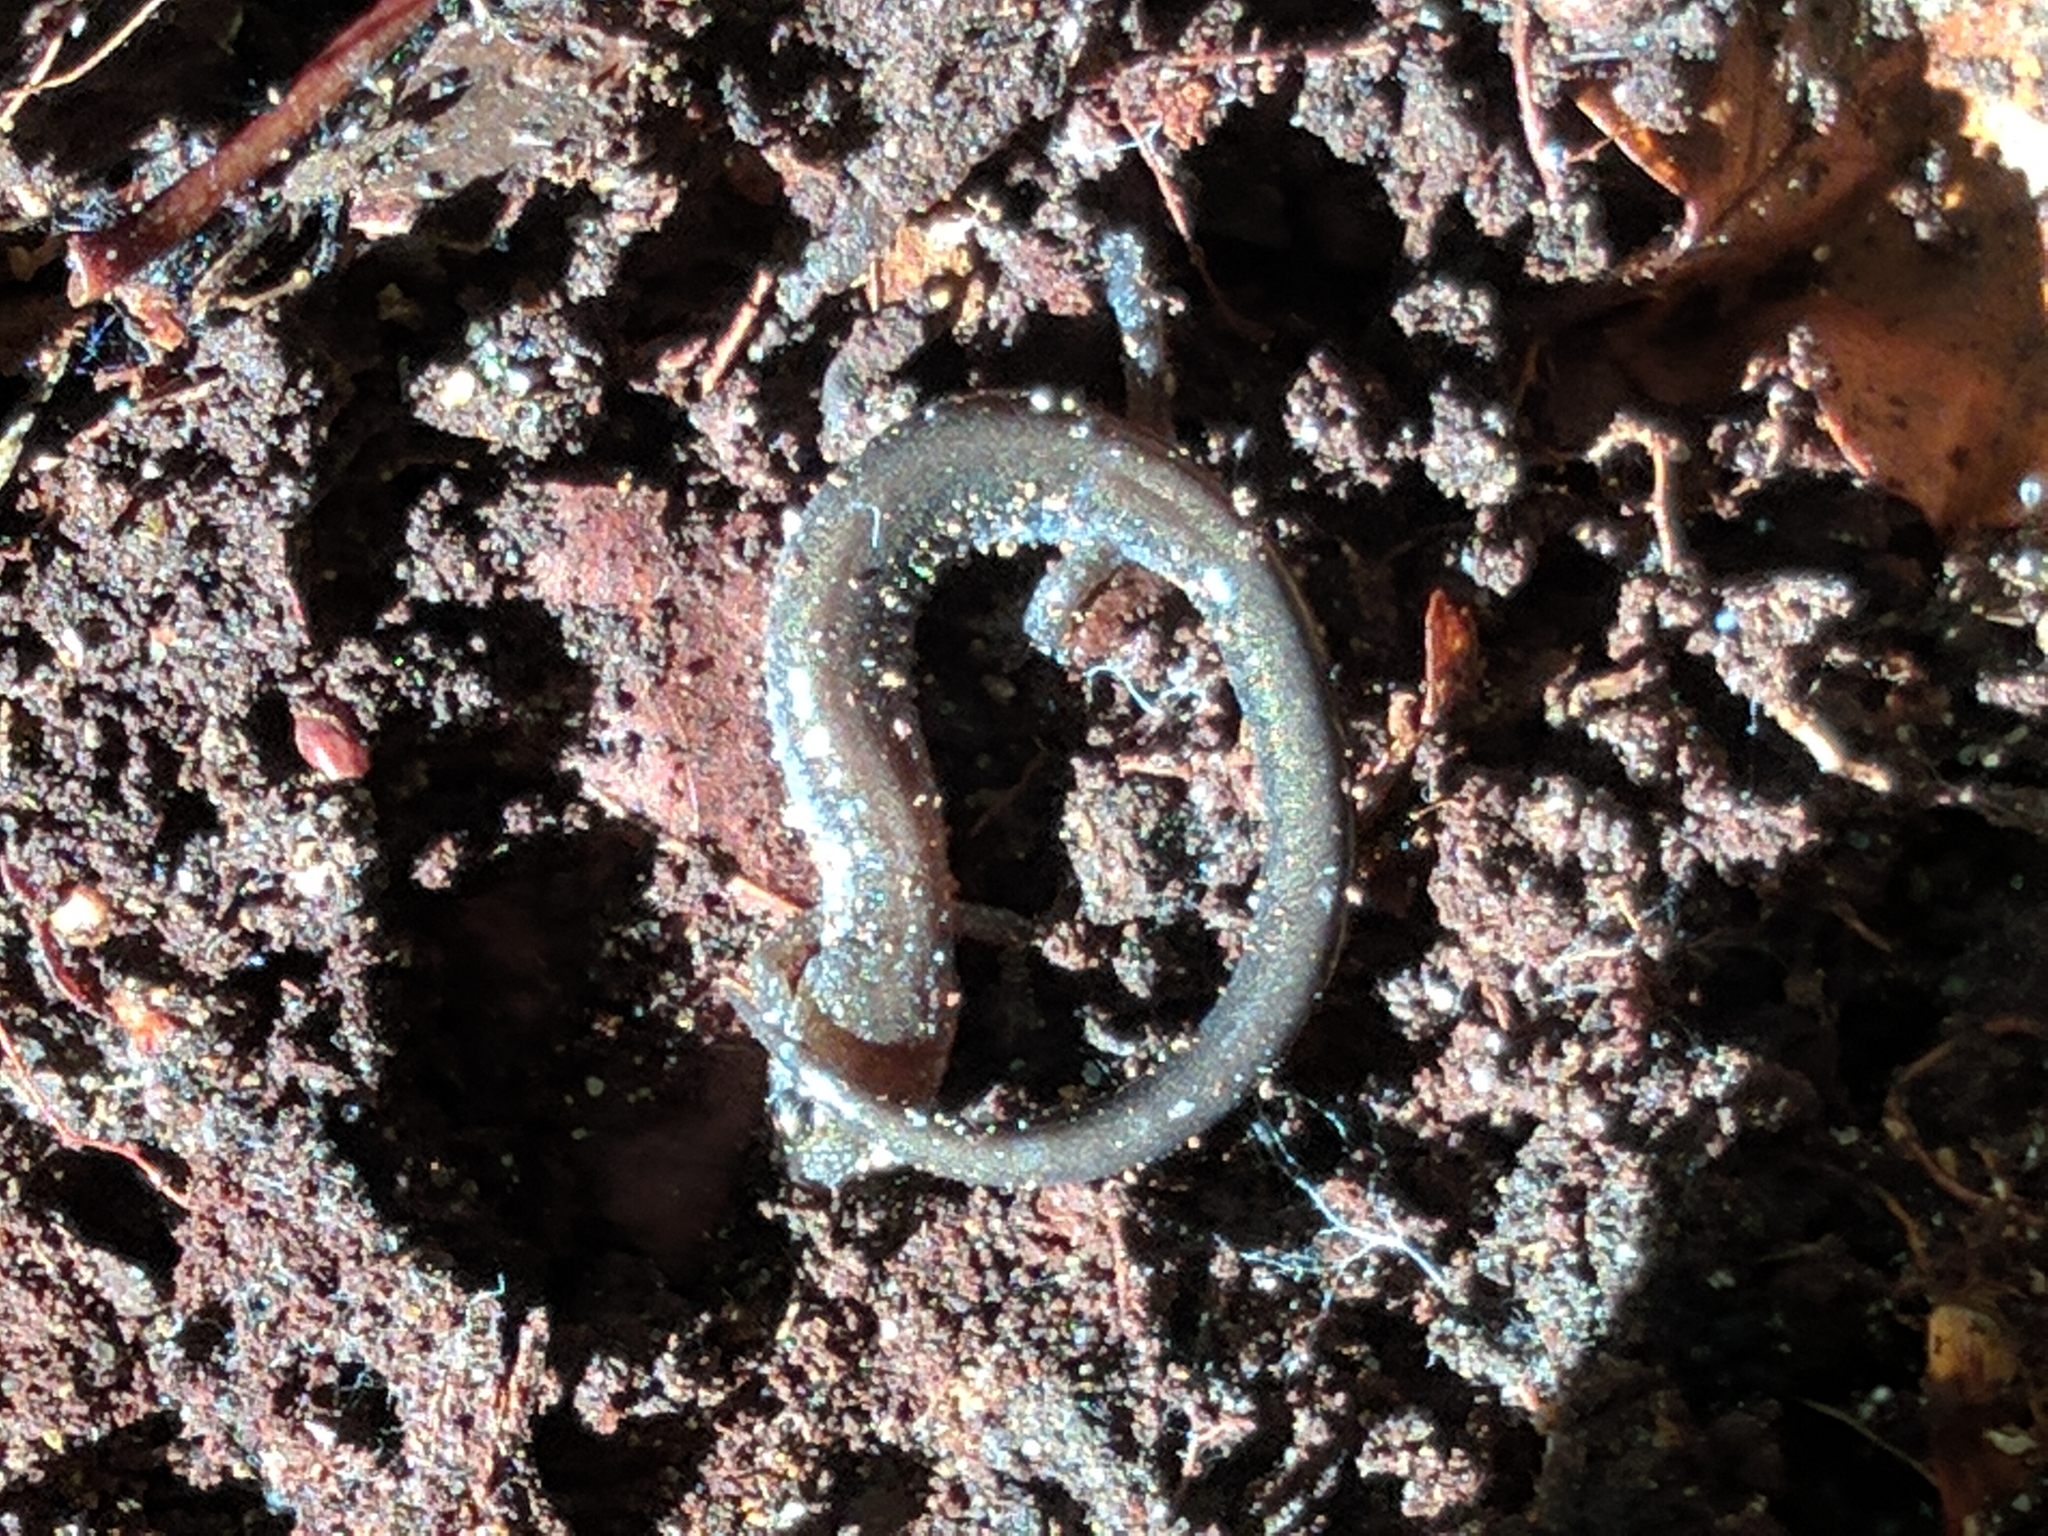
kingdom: Animalia
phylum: Chordata
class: Amphibia
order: Caudata
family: Plethodontidae
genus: Plethodon
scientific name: Plethodon cinereus
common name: Redback salamander
